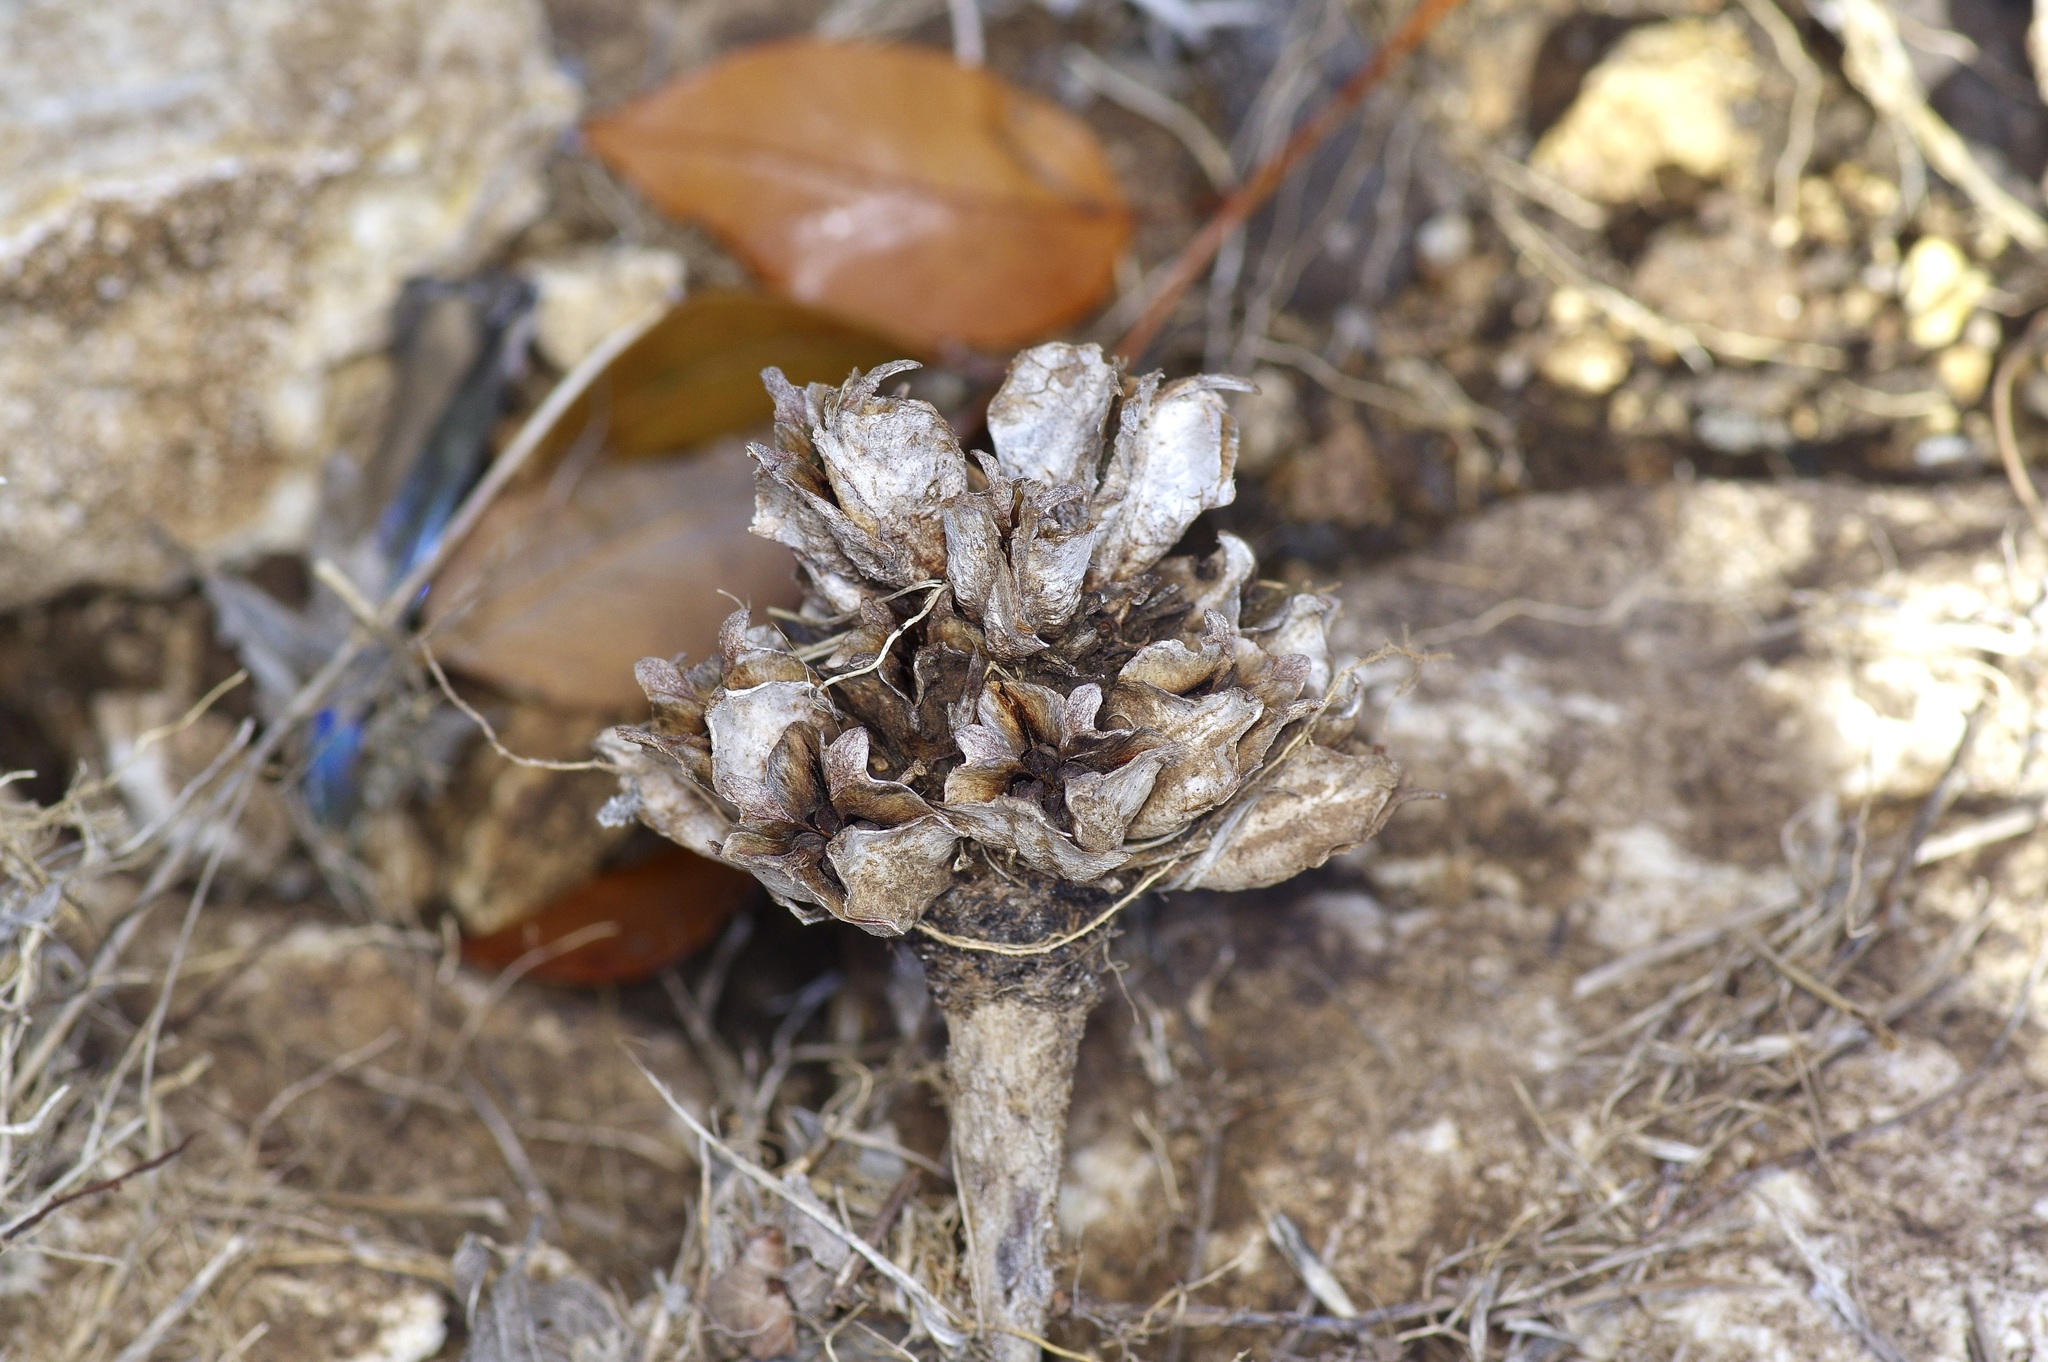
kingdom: Plantae
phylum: Tracheophyta
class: Magnoliopsida
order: Myrtales
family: Onagraceae
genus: Oenothera
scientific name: Oenothera triloba
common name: Sessile evening-primrose
